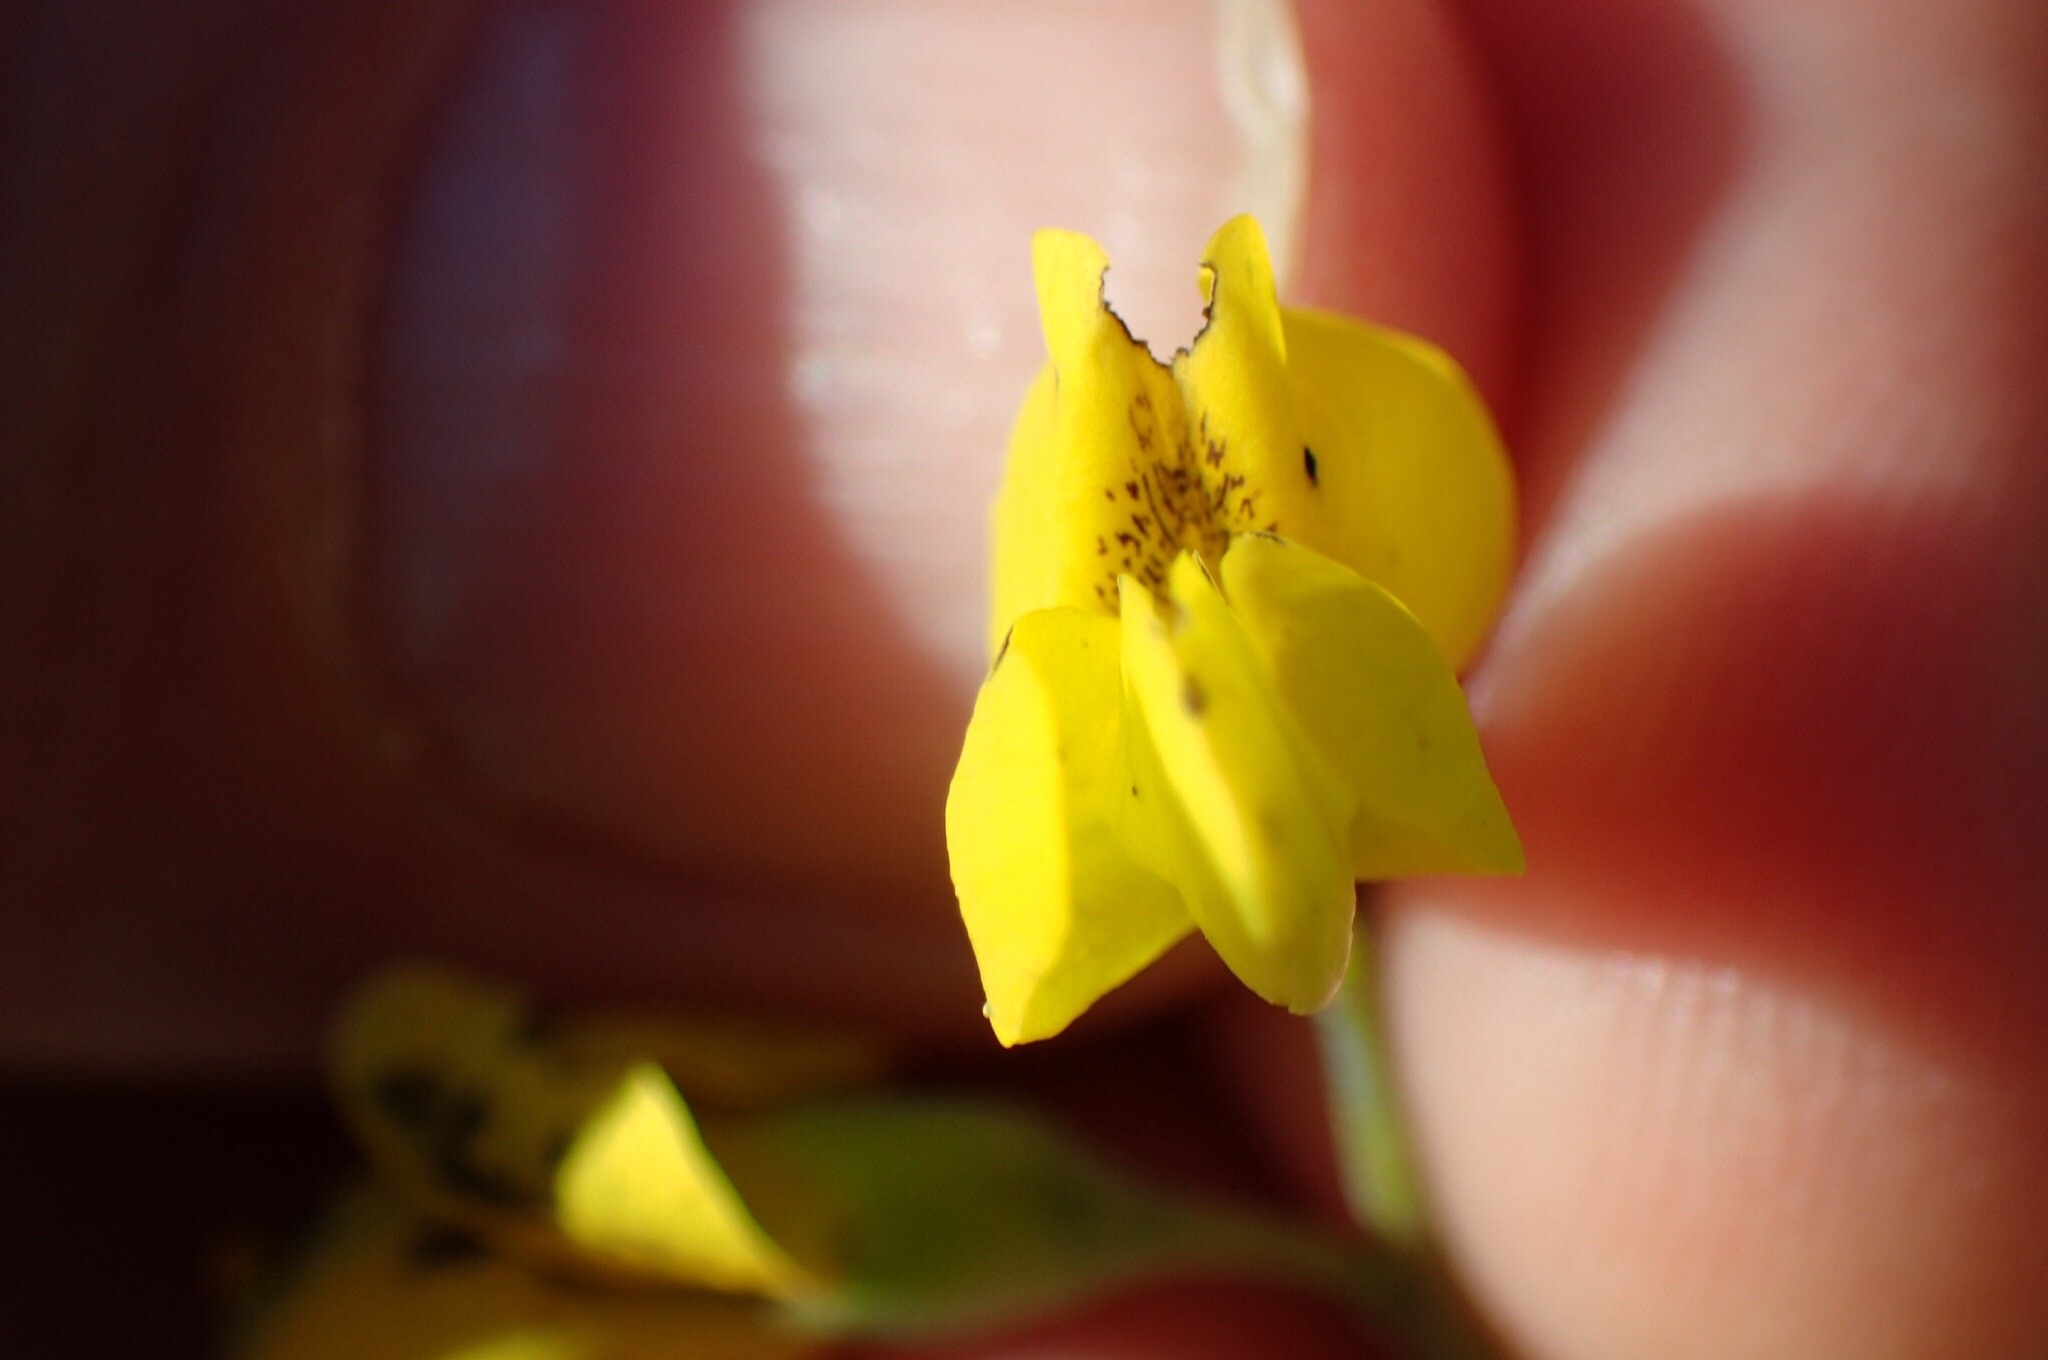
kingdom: Plantae
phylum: Tracheophyta
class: Magnoliopsida
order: Fabales
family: Fabaceae
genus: Baptisia
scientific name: Baptisia tinctoria
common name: Wild indigo
